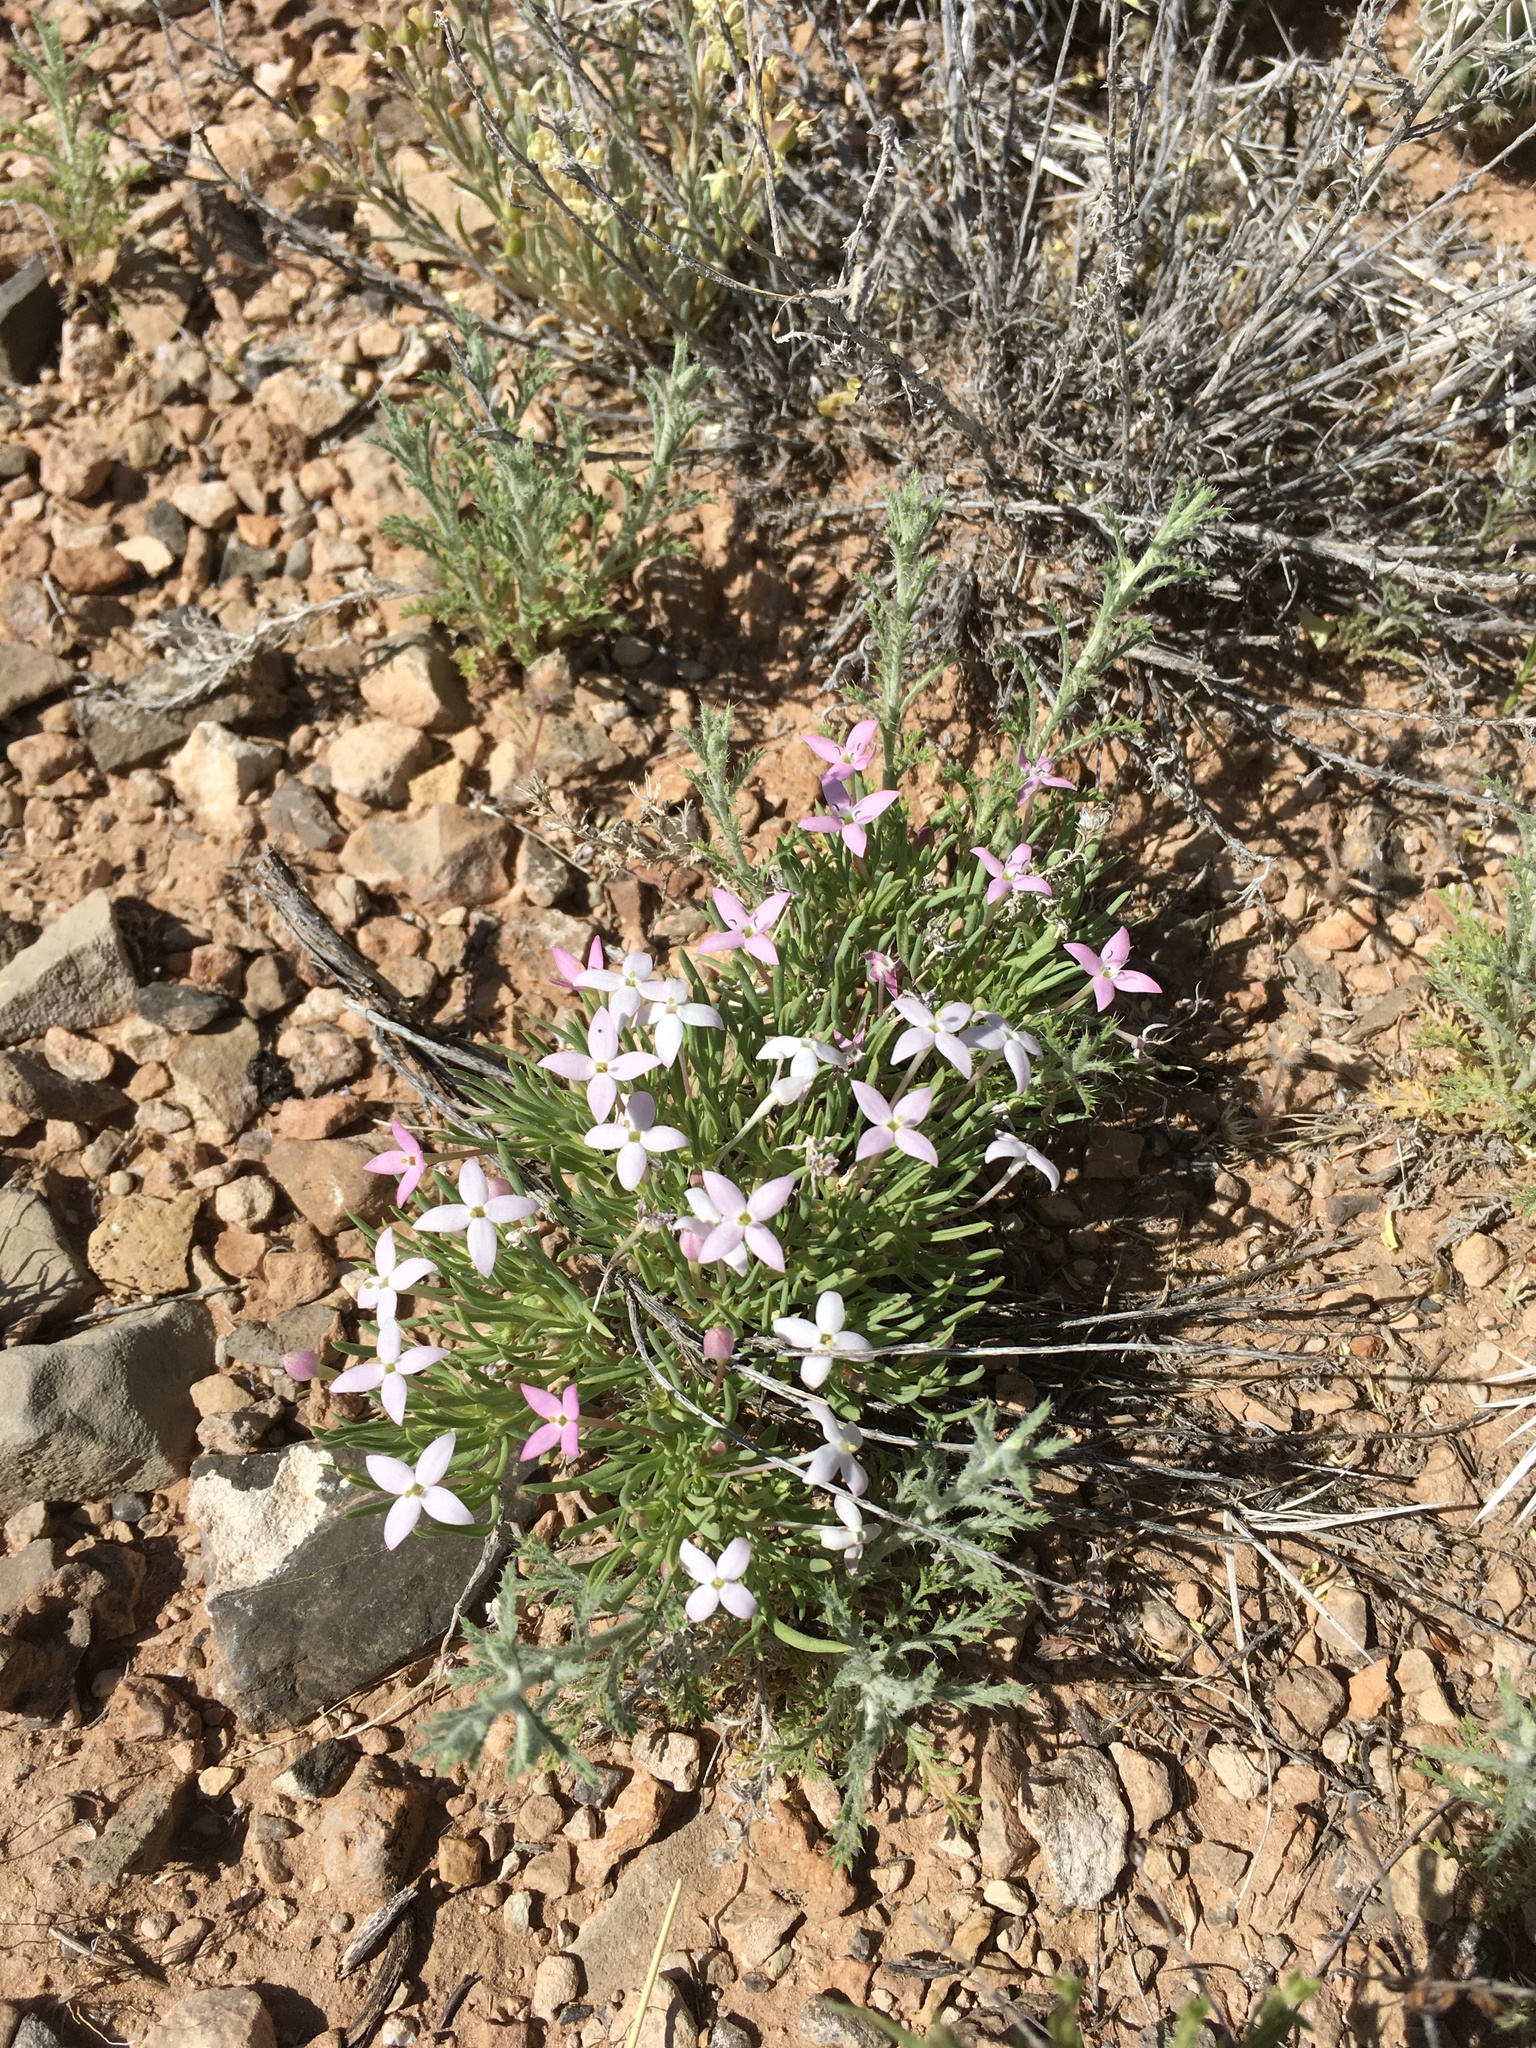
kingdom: Plantae
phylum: Tracheophyta
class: Magnoliopsida
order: Gentianales
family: Rubiaceae
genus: Houstonia
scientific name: Houstonia rubra
